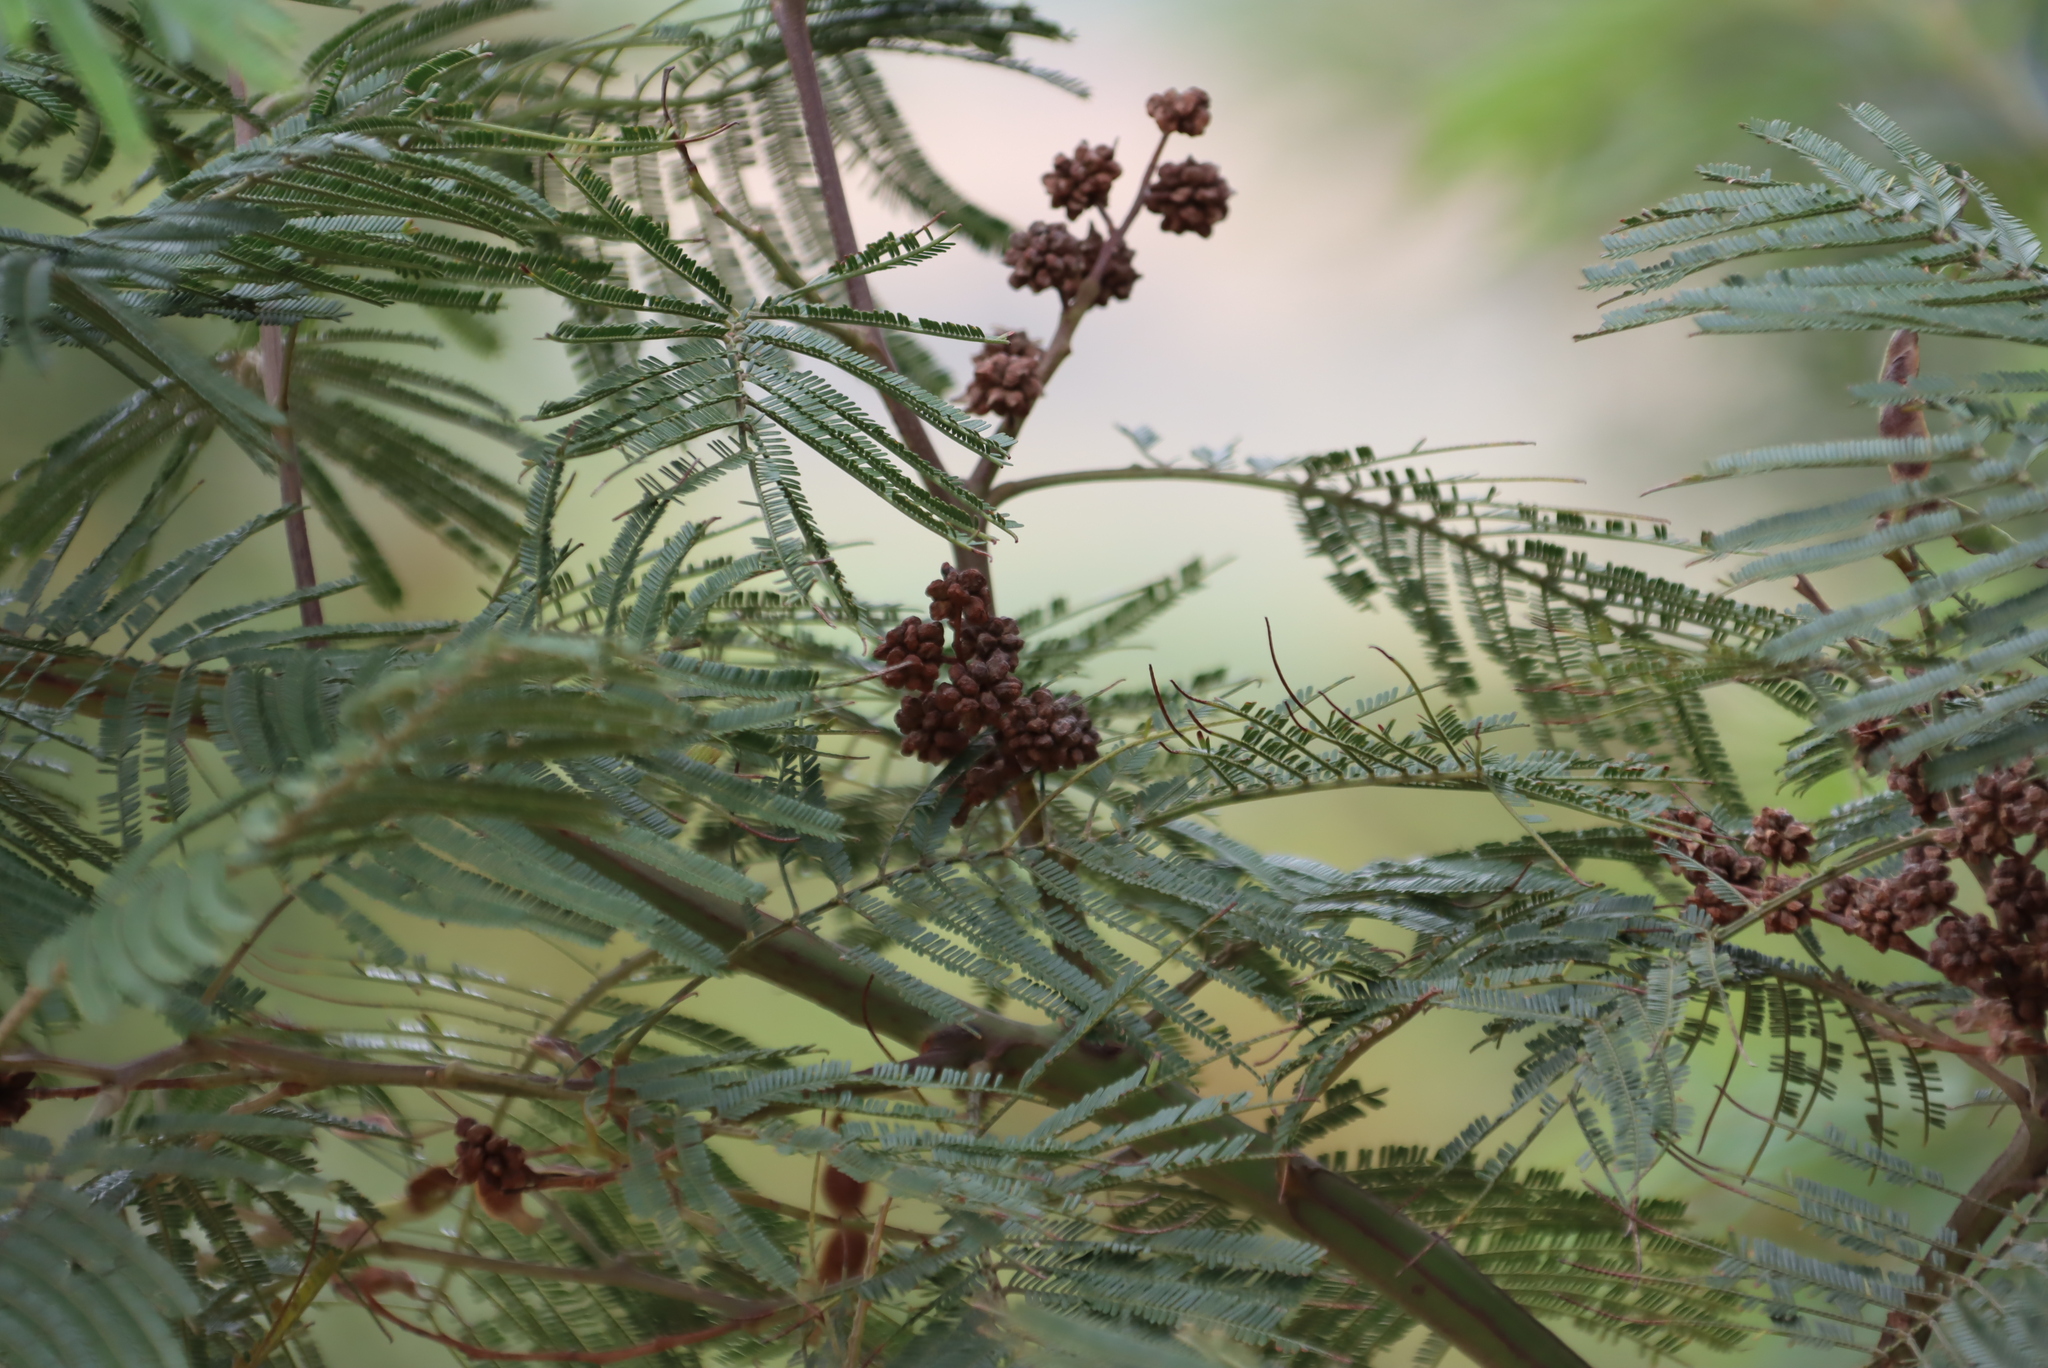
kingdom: Plantae
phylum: Tracheophyta
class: Magnoliopsida
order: Fabales
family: Fabaceae
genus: Acacia
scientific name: Acacia mearnsii
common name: Black wattle
